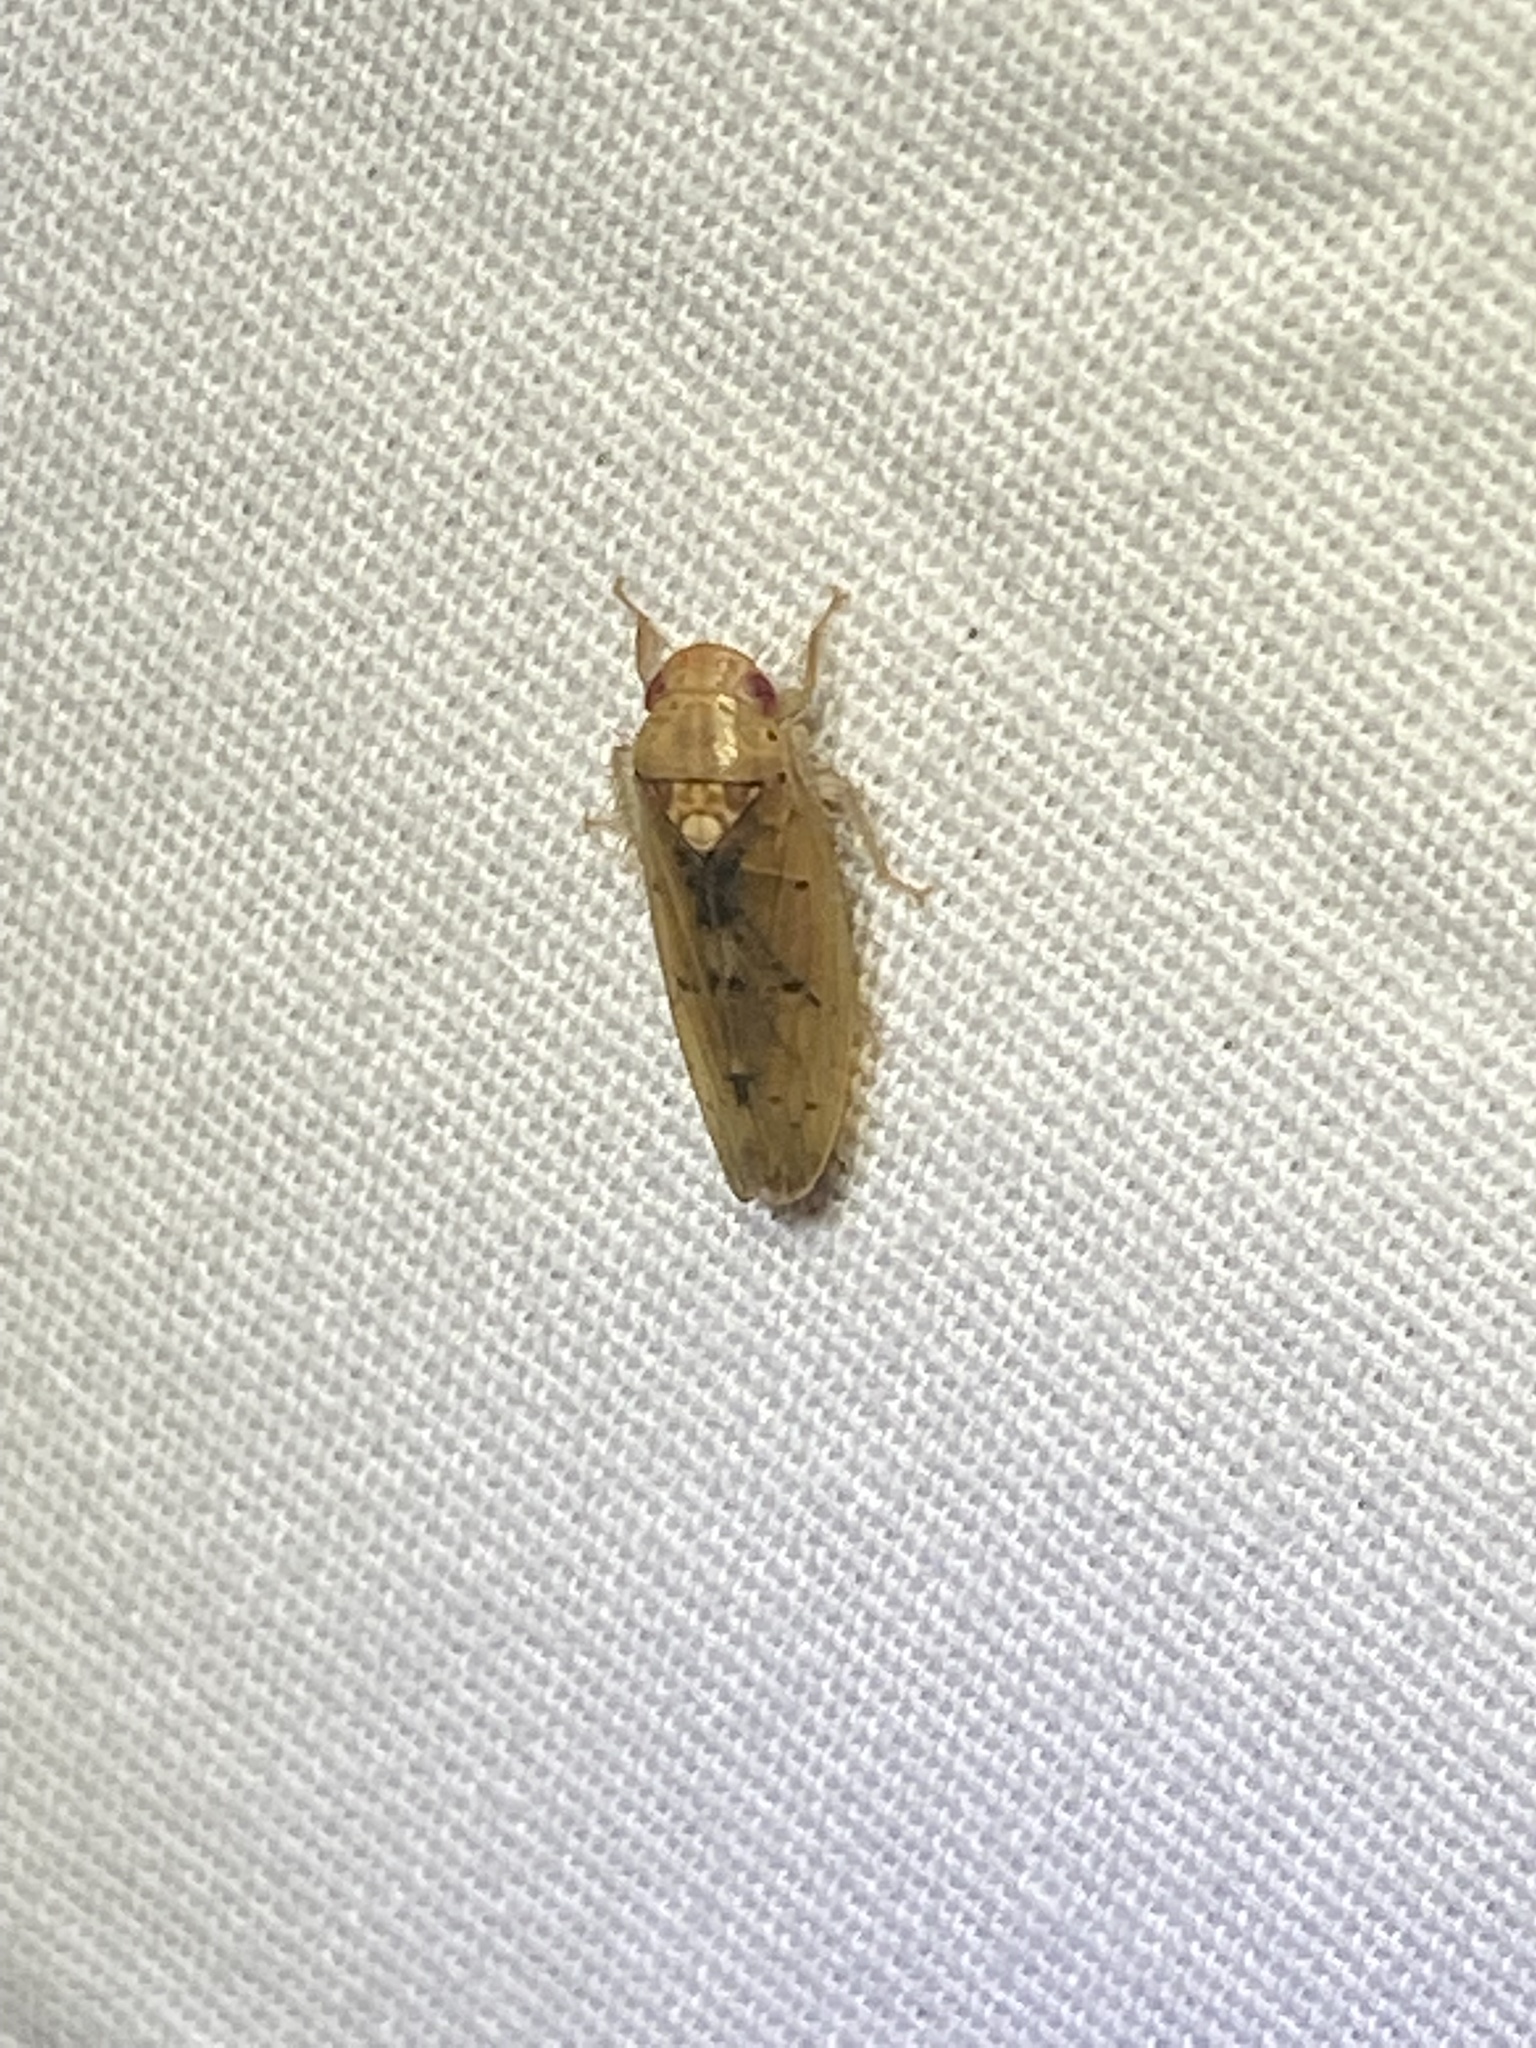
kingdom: Animalia
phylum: Arthropoda
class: Insecta
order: Hemiptera
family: Cicadellidae
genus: Ponana
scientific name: Ponana quadralaba
